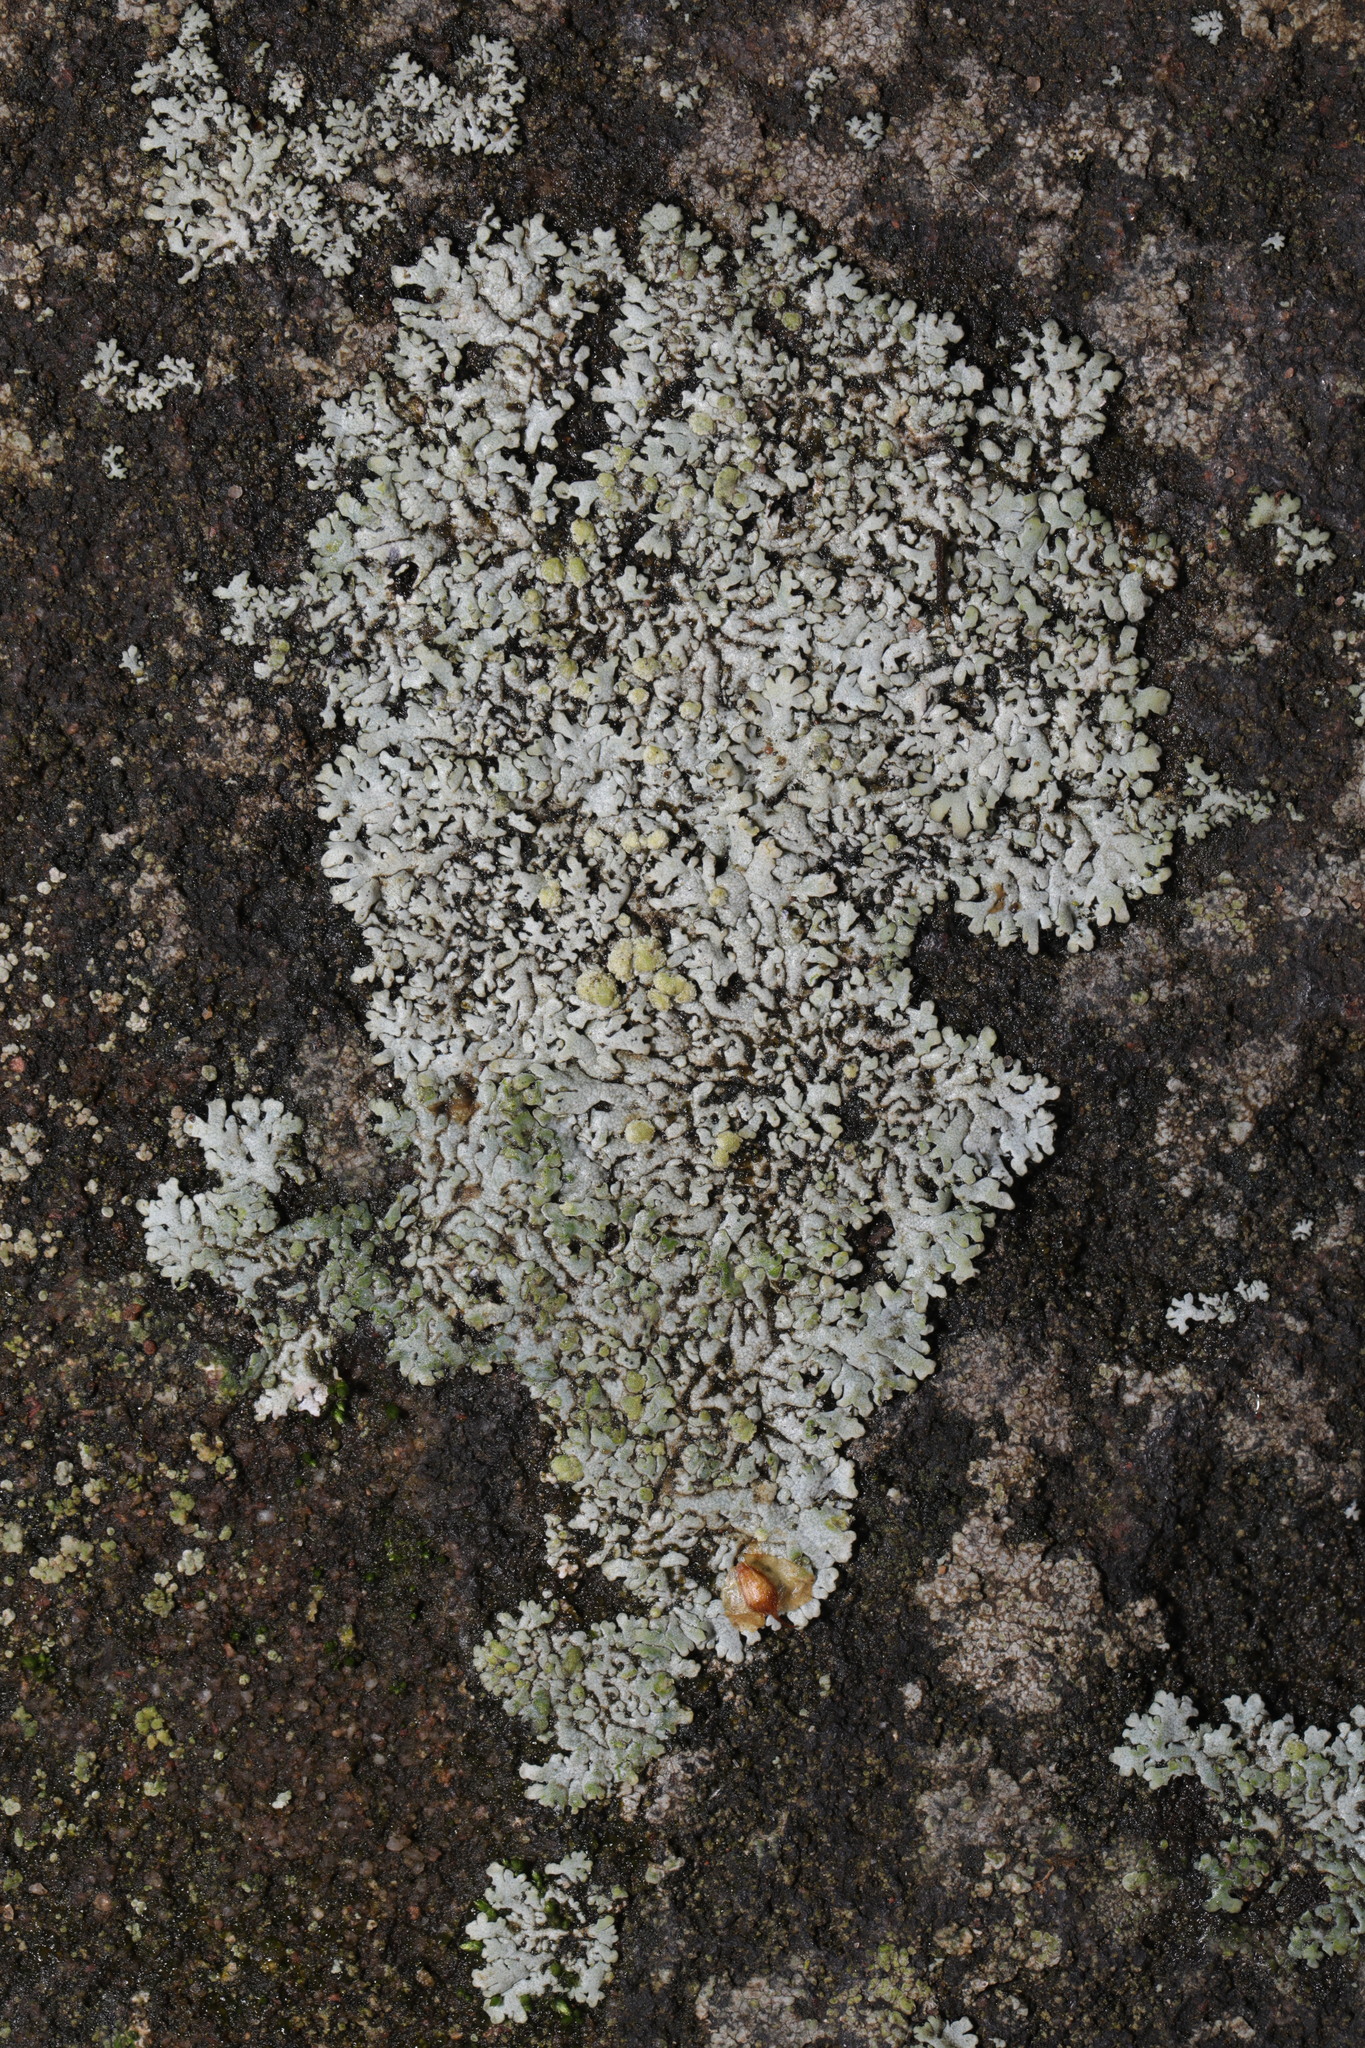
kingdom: Fungi
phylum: Ascomycota
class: Lecanoromycetes
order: Caliciales
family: Physciaceae
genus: Physcia
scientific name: Physcia caesia
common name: Blue-gray rosette lichen
